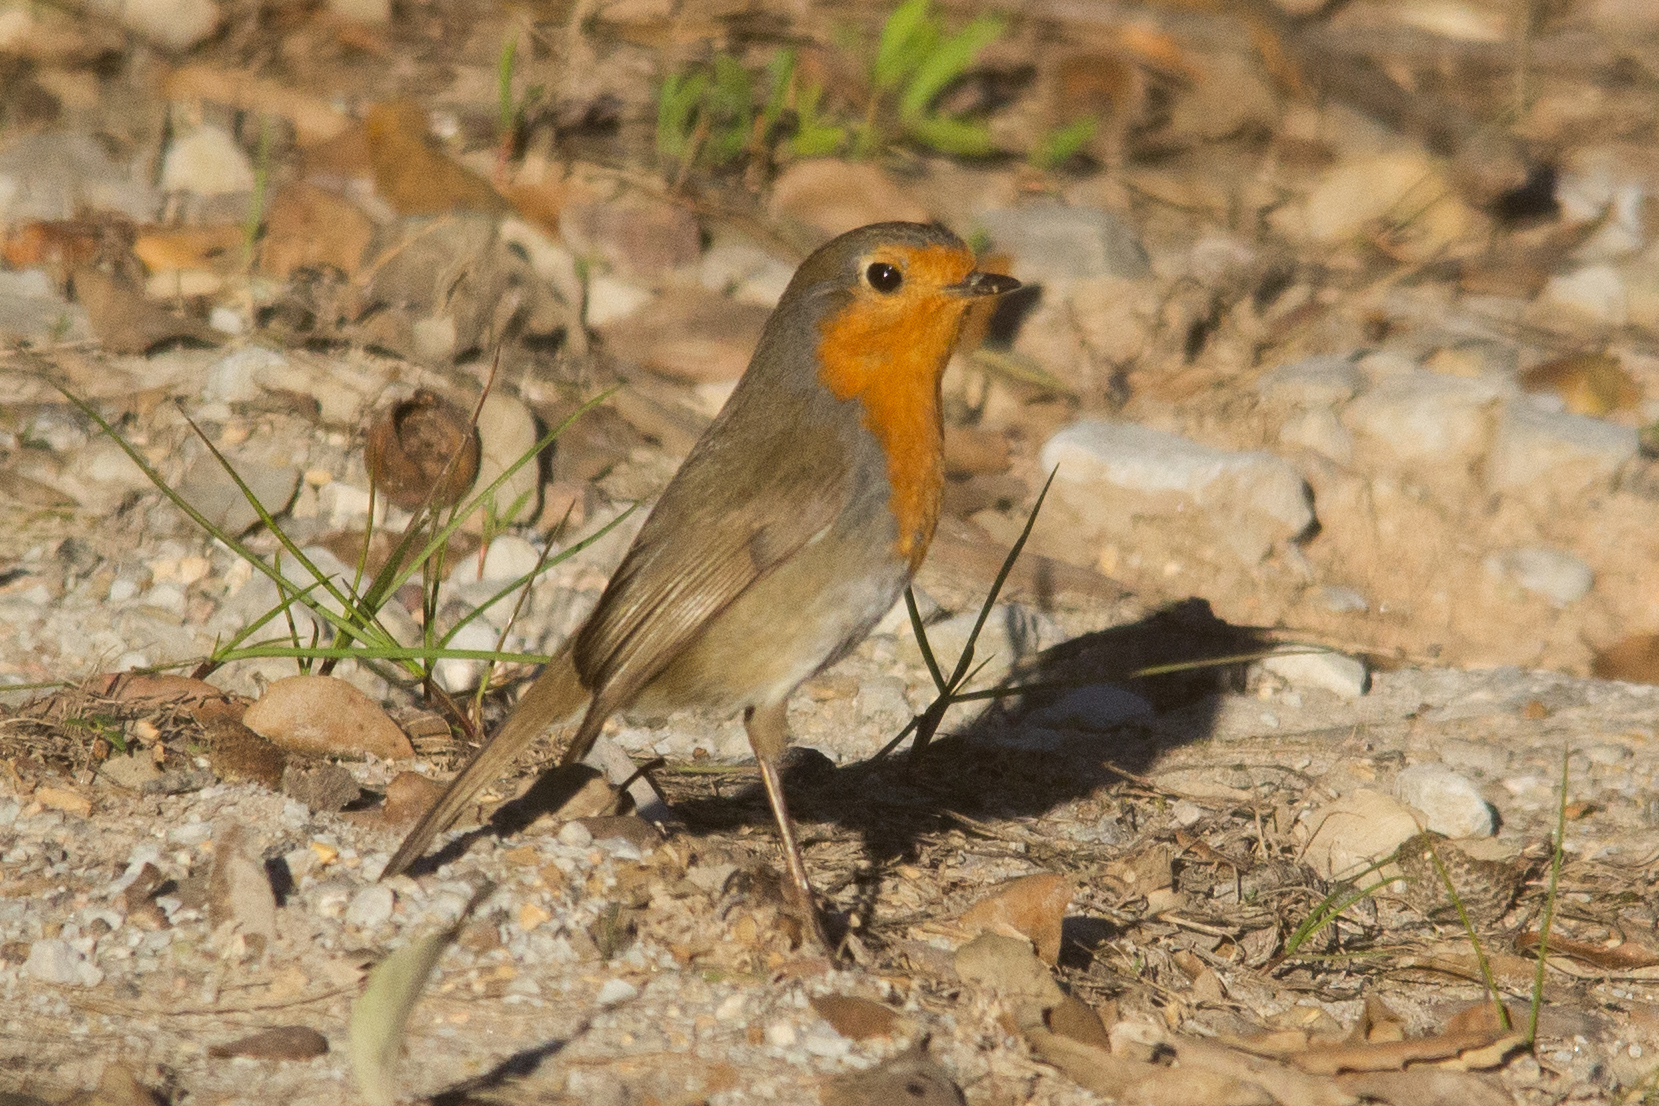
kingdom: Animalia
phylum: Chordata
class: Aves
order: Passeriformes
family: Muscicapidae
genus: Erithacus
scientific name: Erithacus rubecula
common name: European robin
